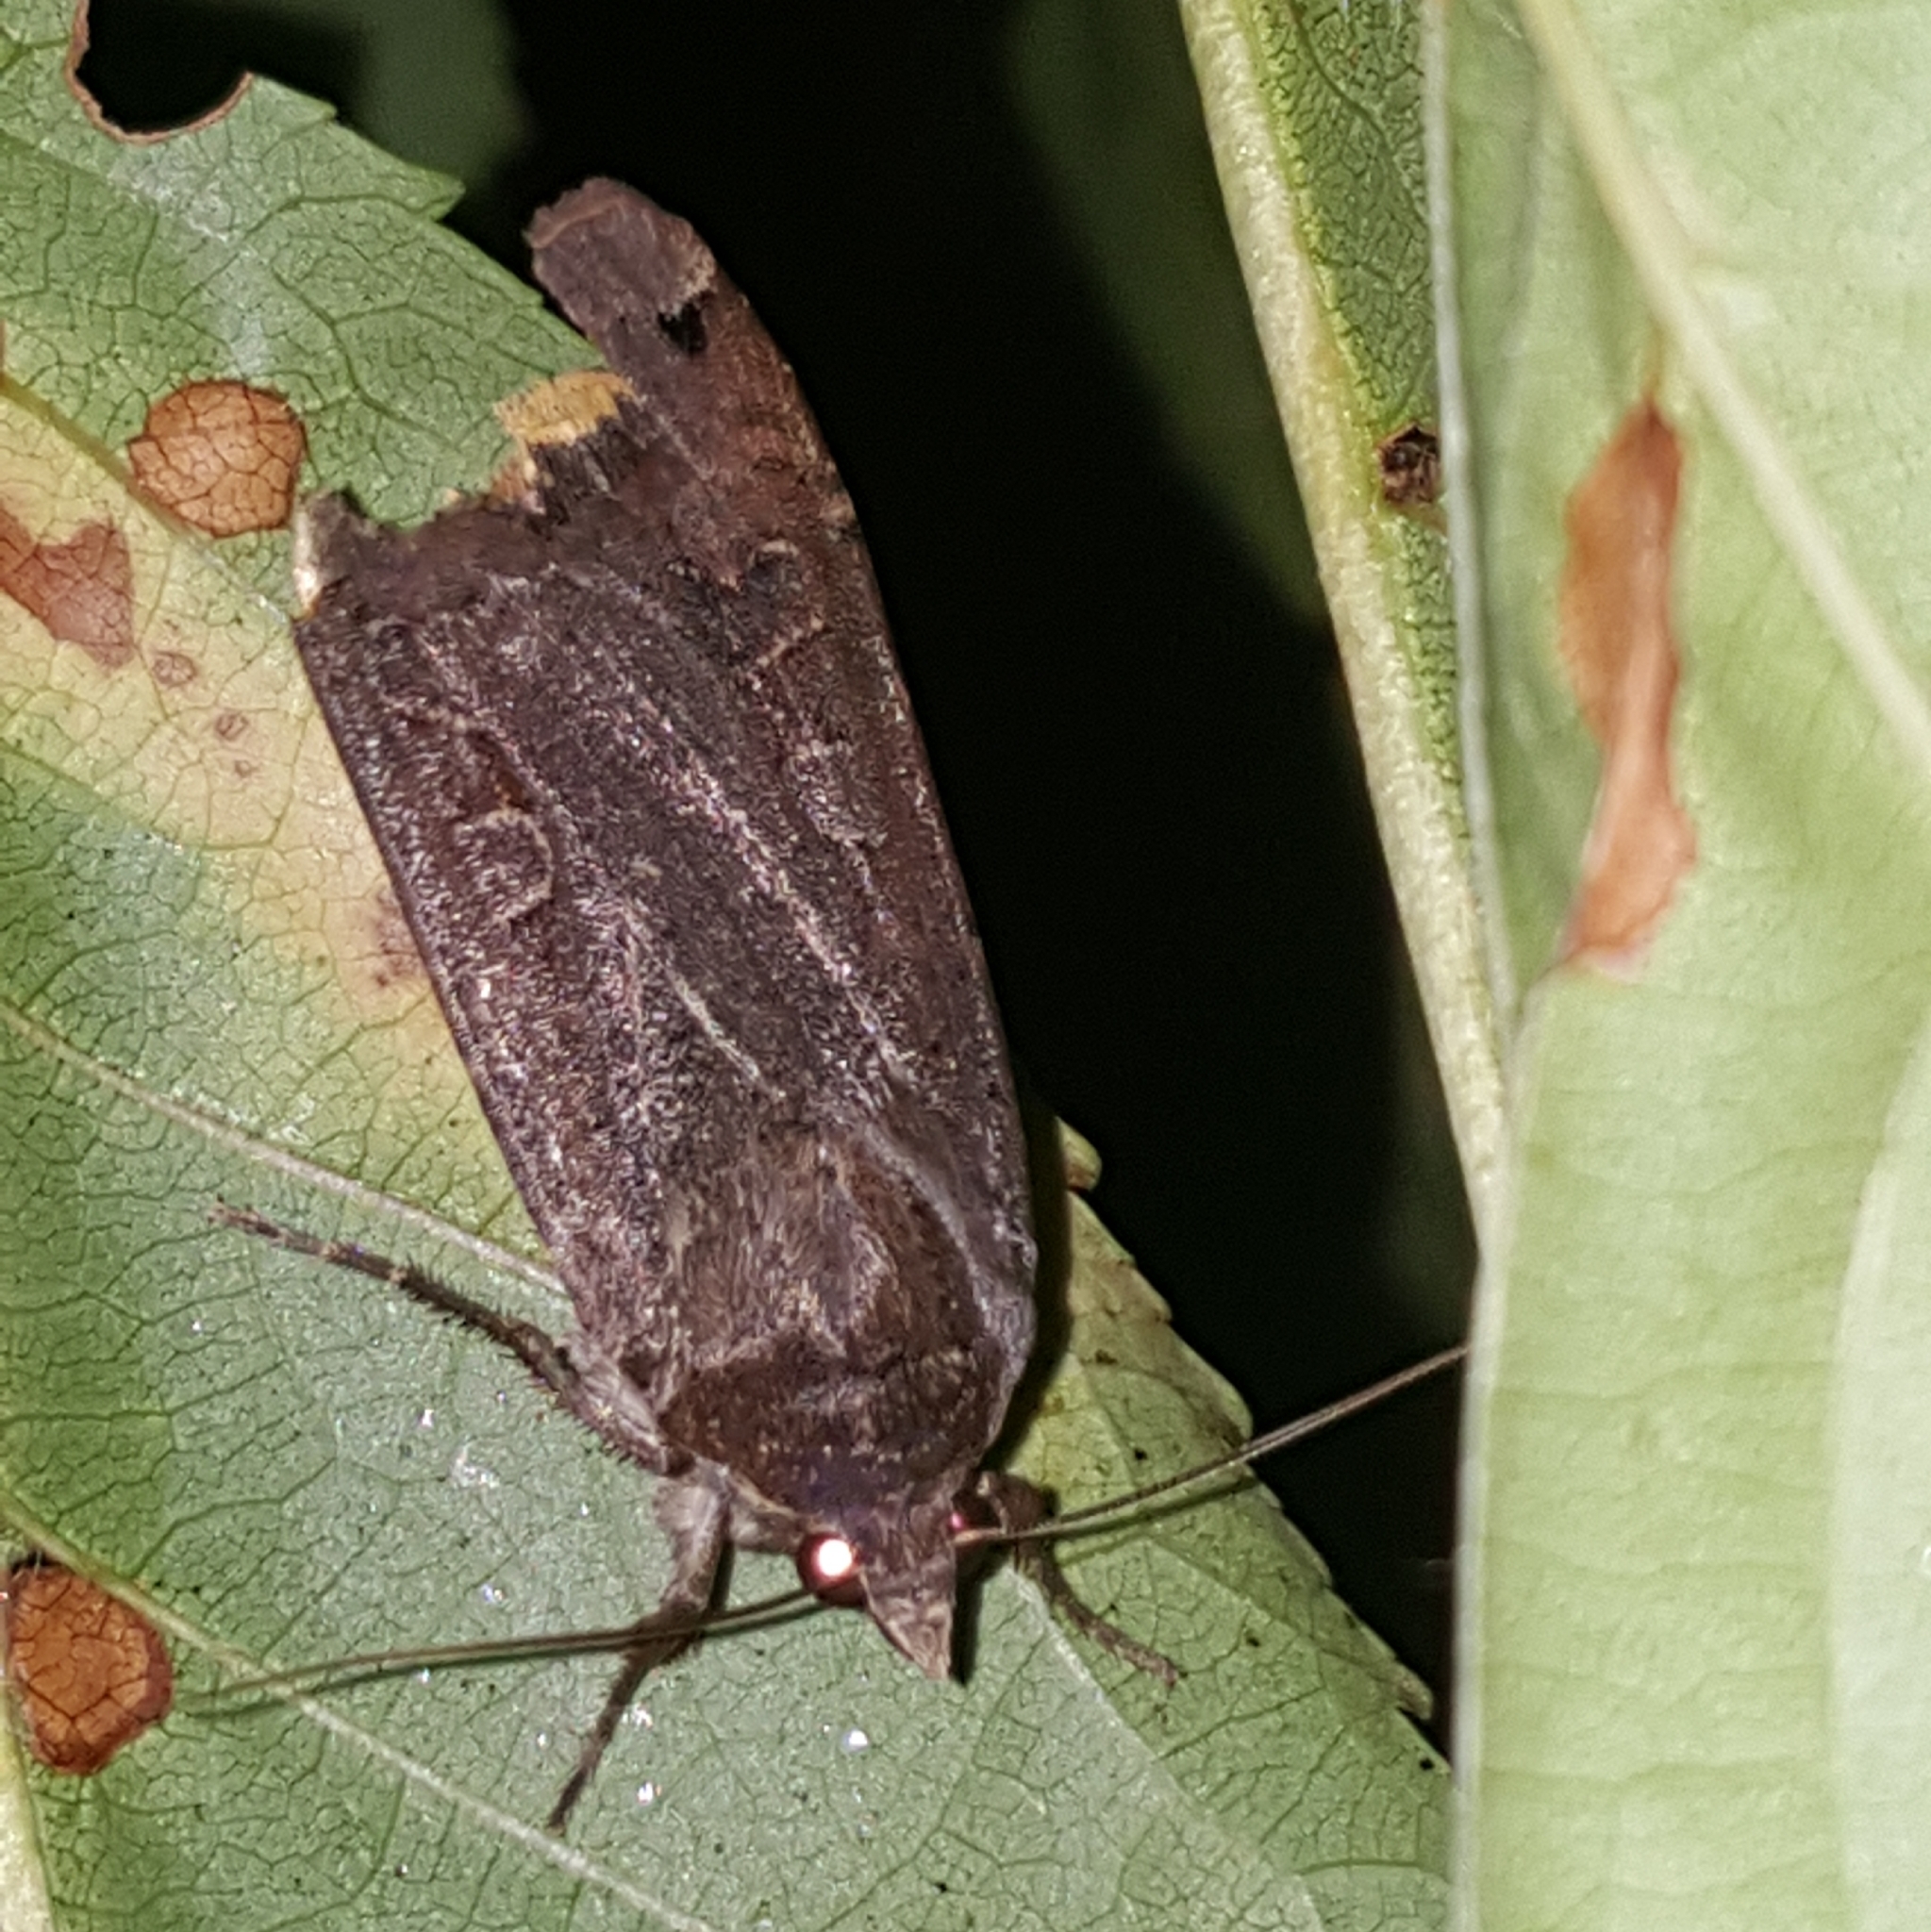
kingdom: Animalia
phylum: Arthropoda
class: Insecta
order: Lepidoptera
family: Noctuidae
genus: Noctua
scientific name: Noctua pronuba
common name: Large yellow underwing
